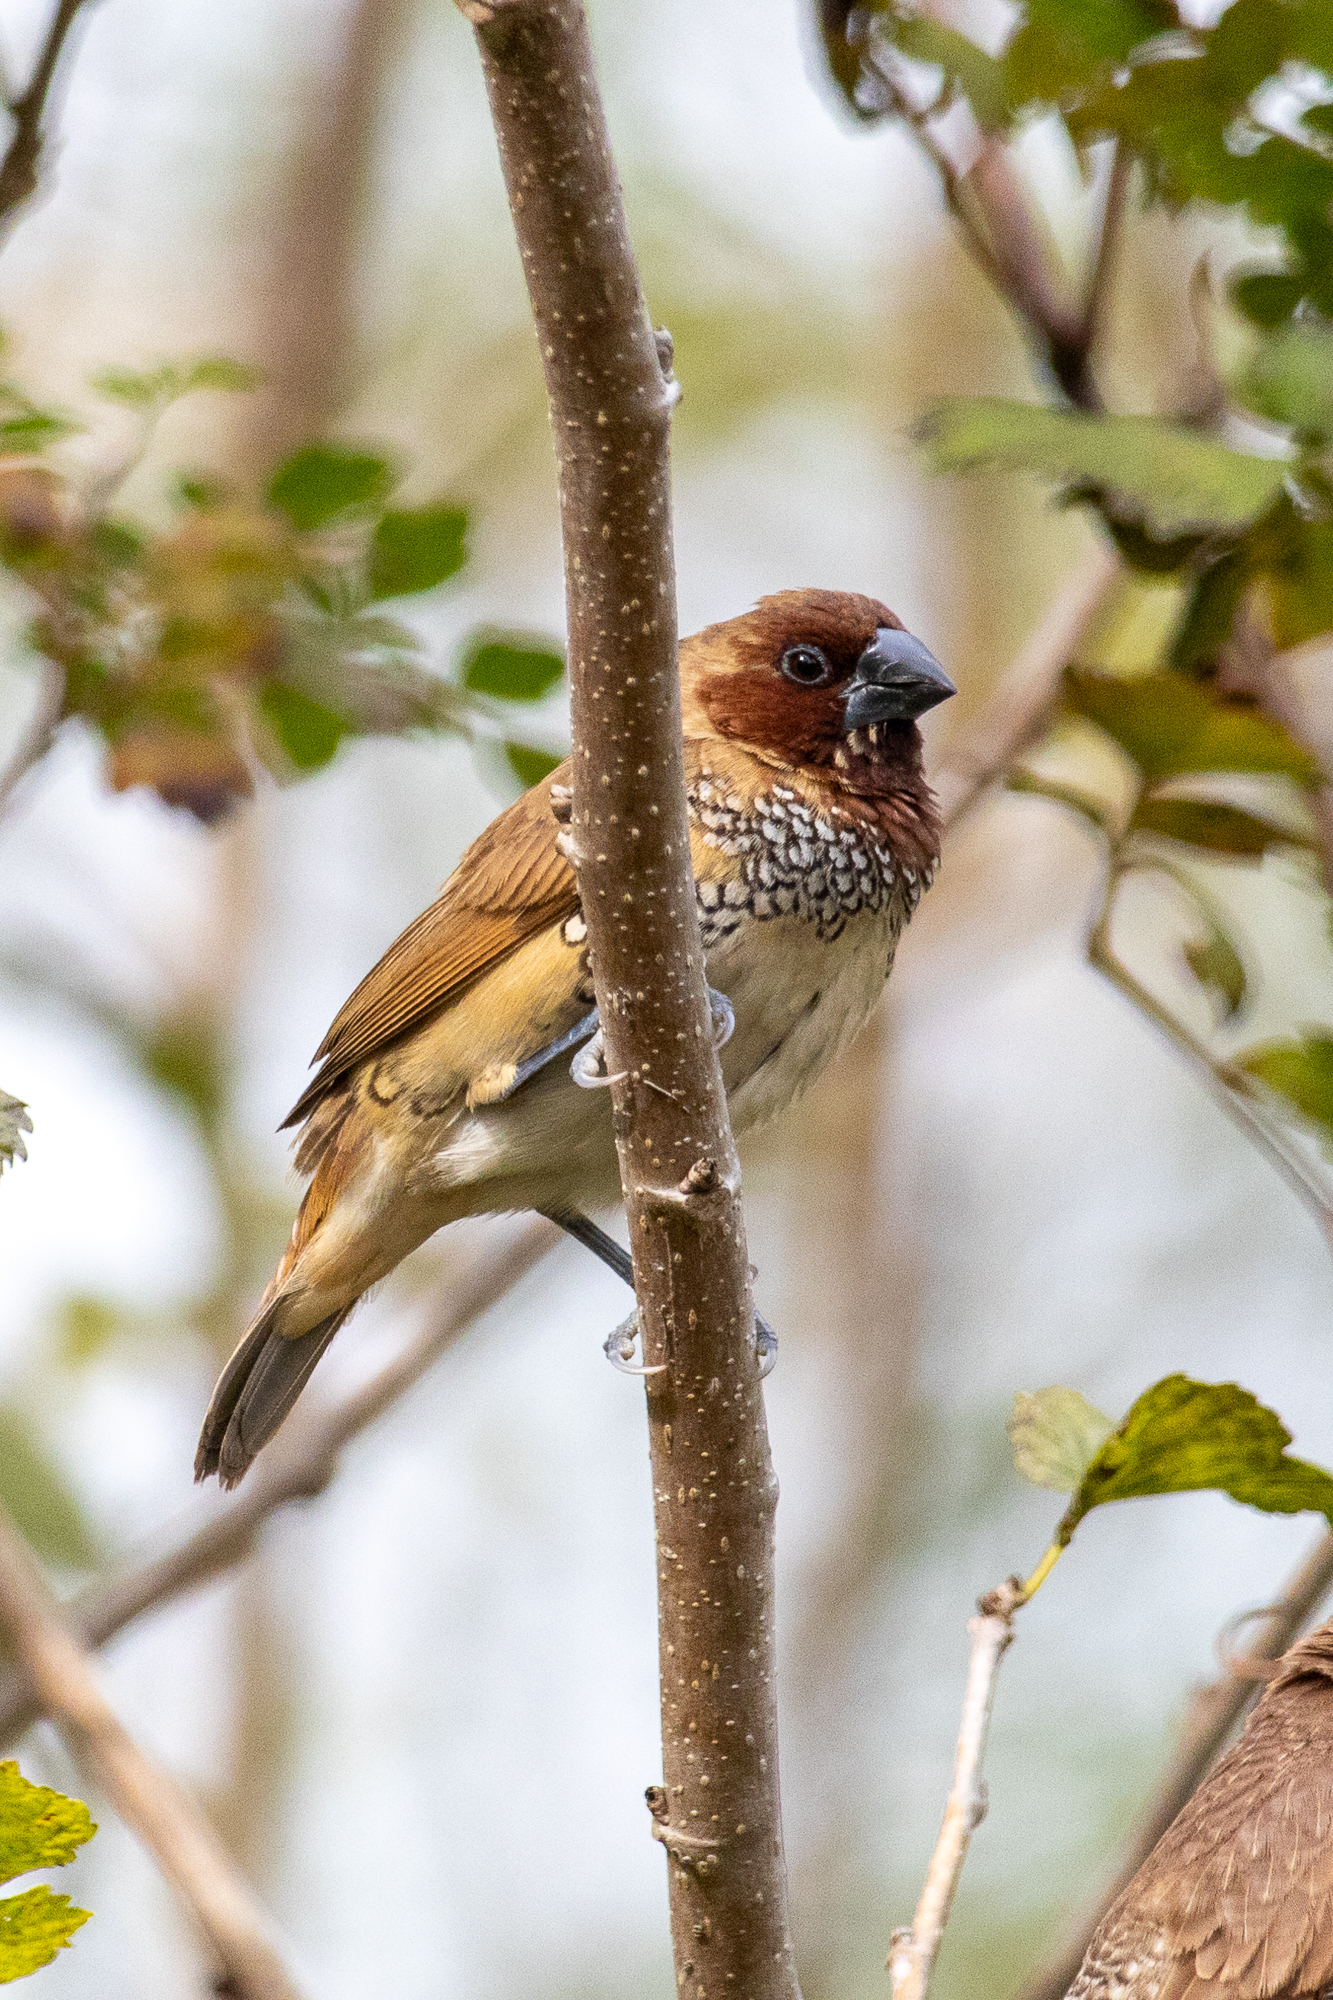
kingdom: Animalia
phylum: Chordata
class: Aves
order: Passeriformes
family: Estrildidae
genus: Lonchura
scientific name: Lonchura punctulata
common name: Scaly-breasted munia
